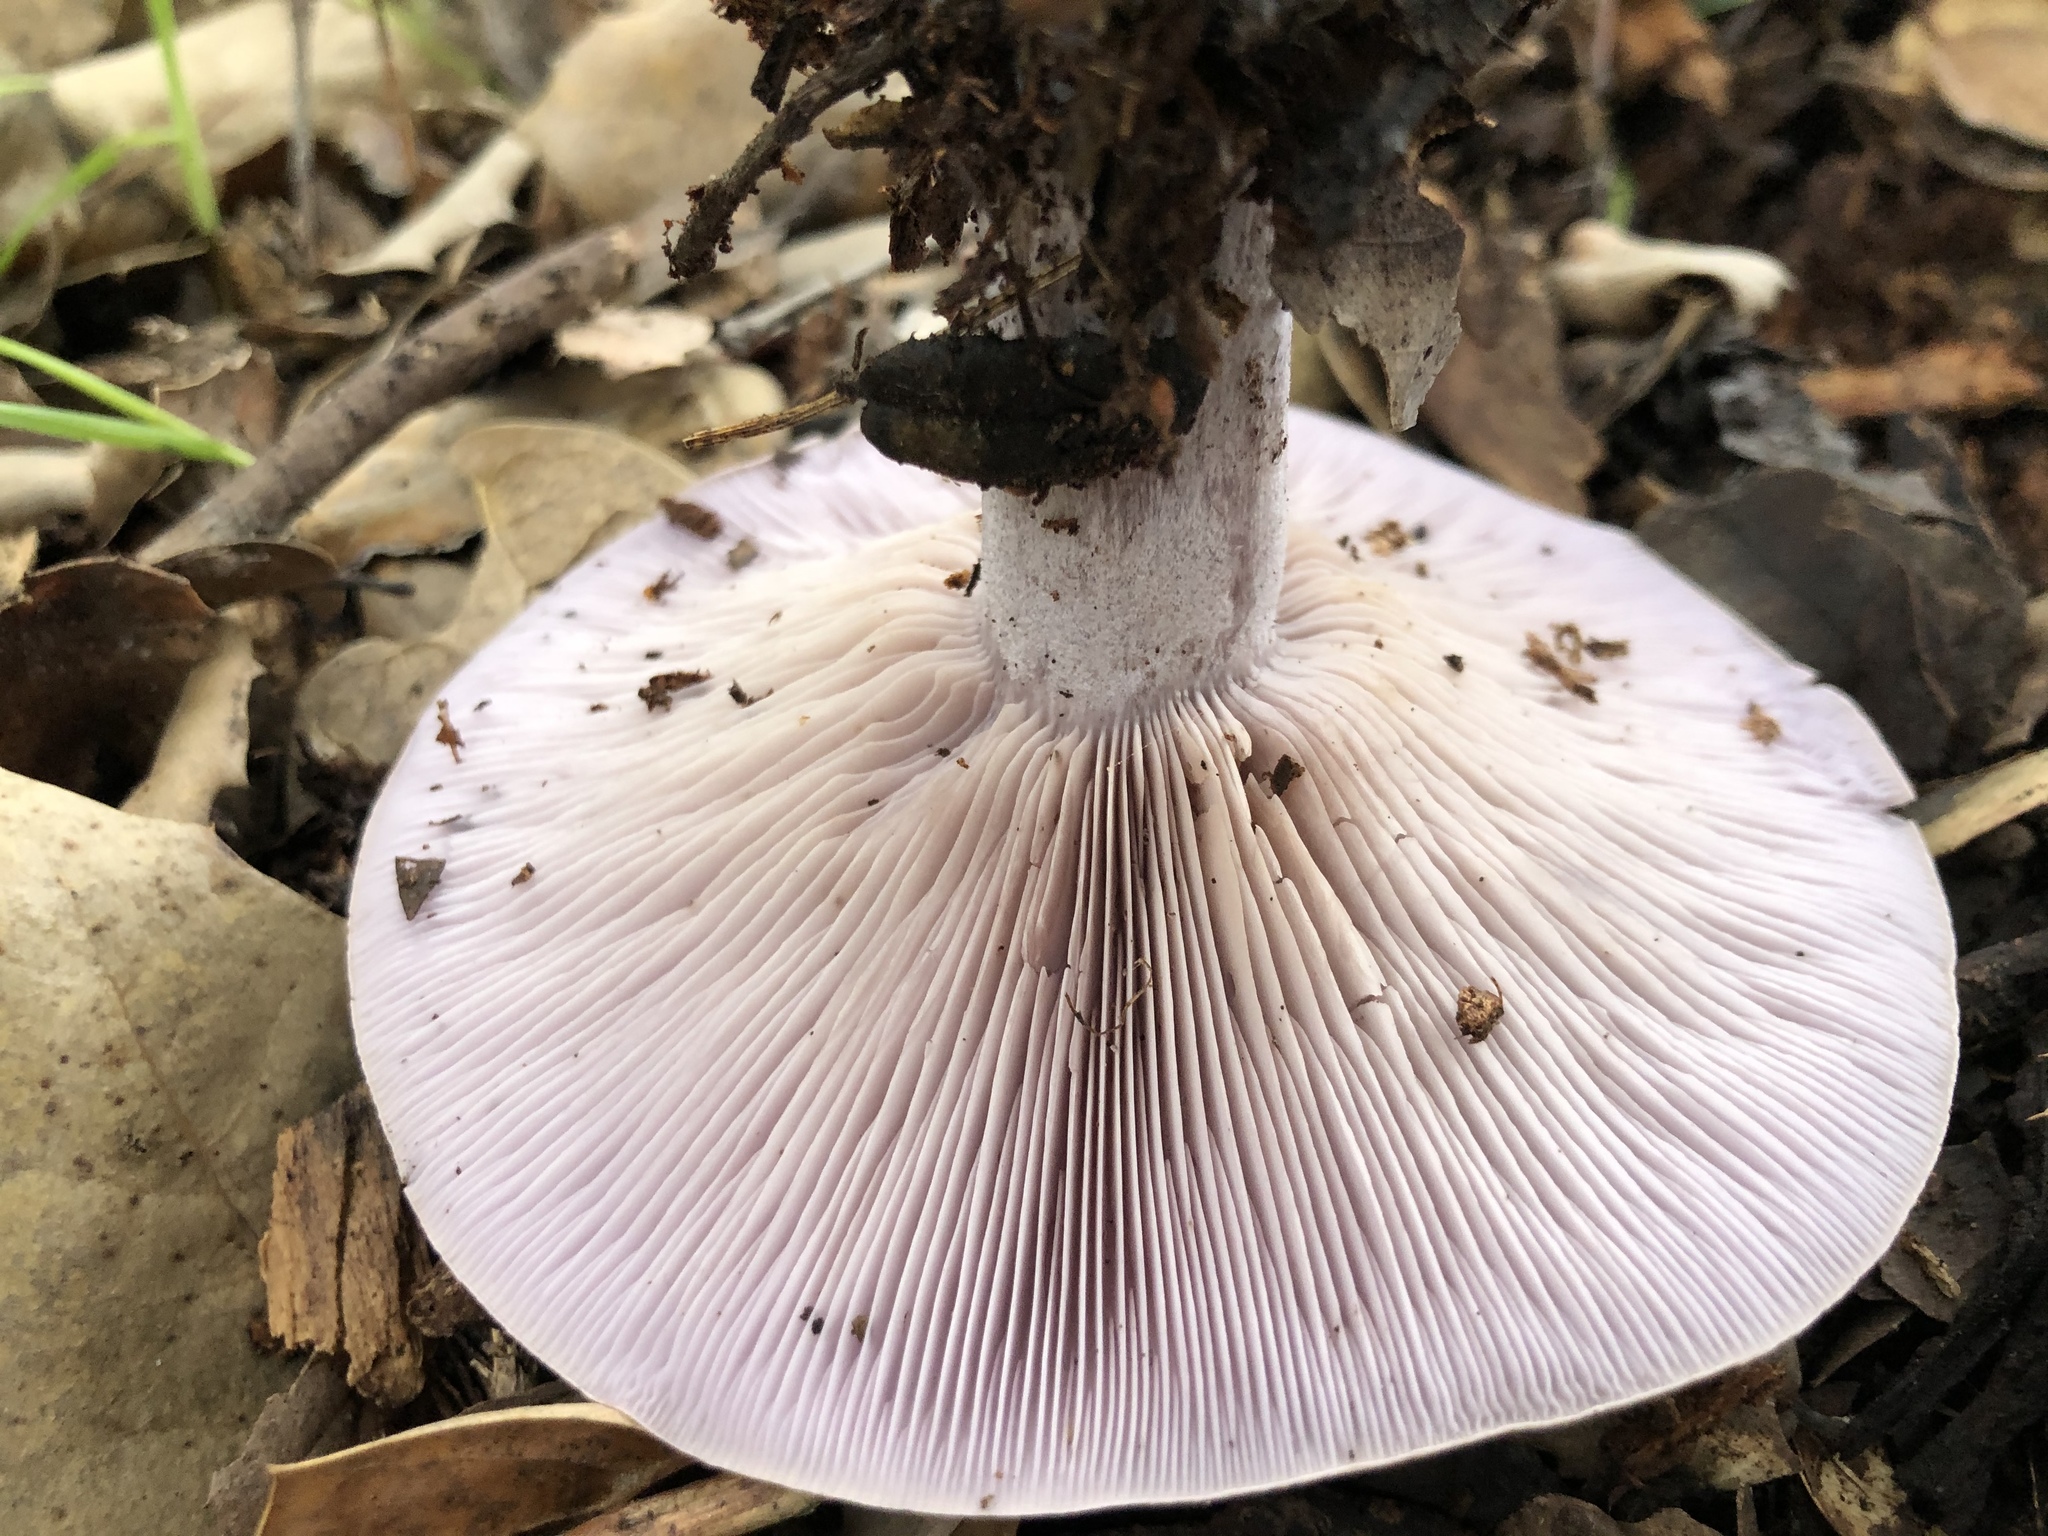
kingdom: Fungi
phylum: Basidiomycota
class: Agaricomycetes
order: Agaricales
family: Tricholomataceae
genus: Collybia
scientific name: Collybia
